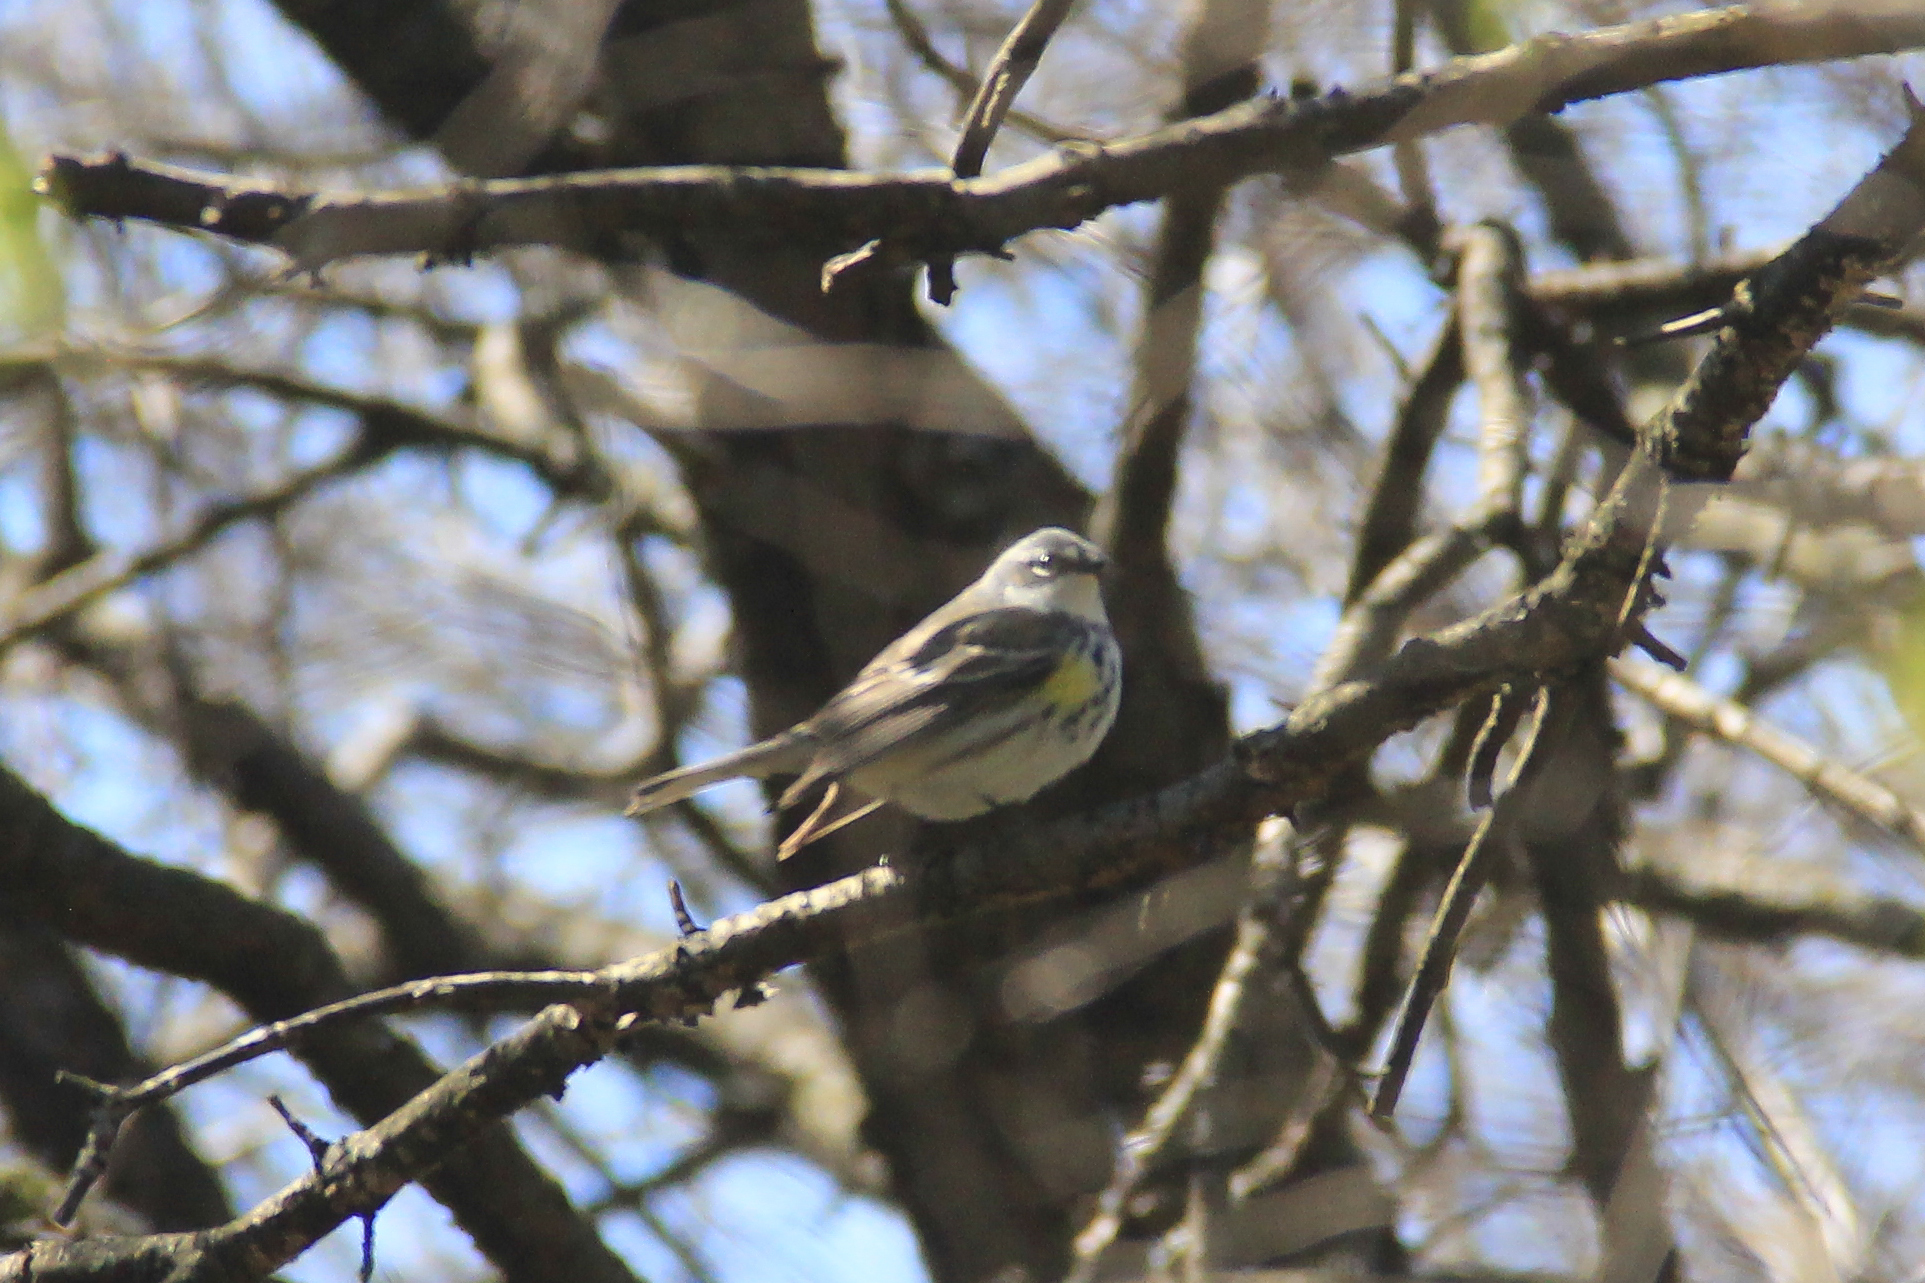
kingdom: Animalia
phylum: Chordata
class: Aves
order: Passeriformes
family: Parulidae
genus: Setophaga
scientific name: Setophaga coronata
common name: Myrtle warbler
